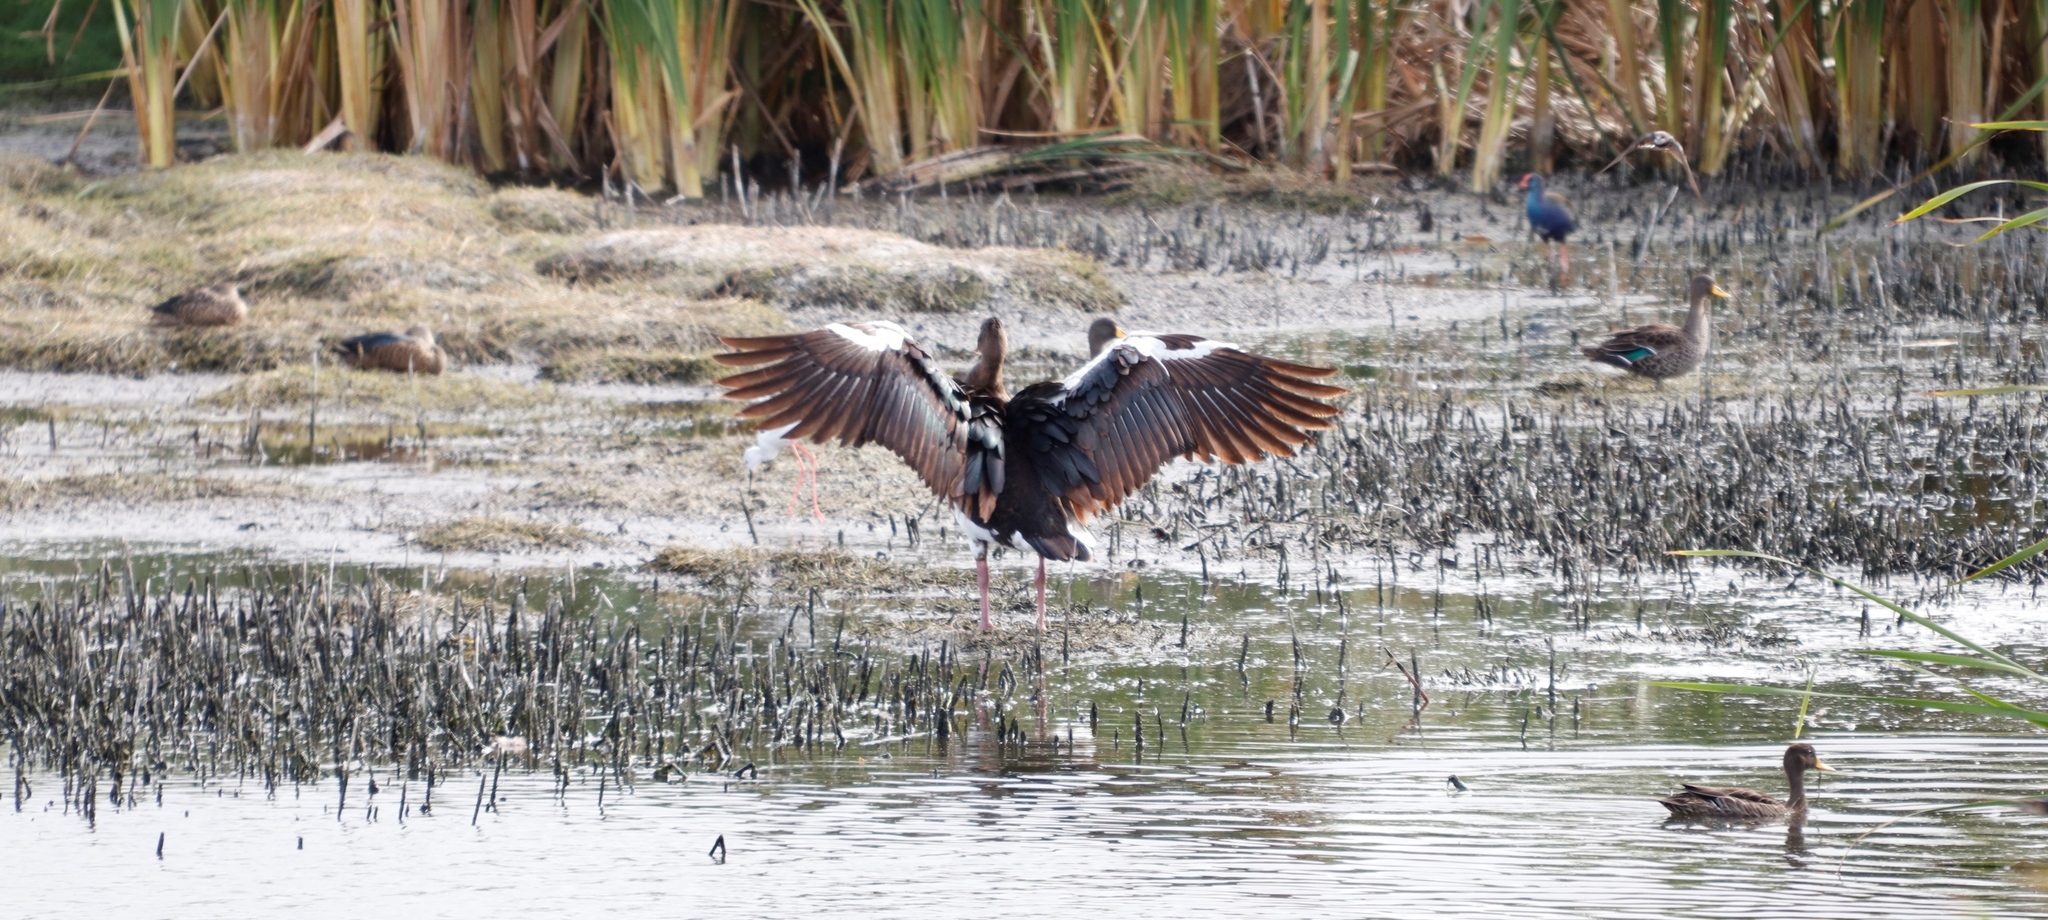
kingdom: Animalia
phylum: Chordata
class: Aves
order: Anseriformes
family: Anatidae
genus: Plectropterus
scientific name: Plectropterus gambensis
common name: Spur-winged goose
